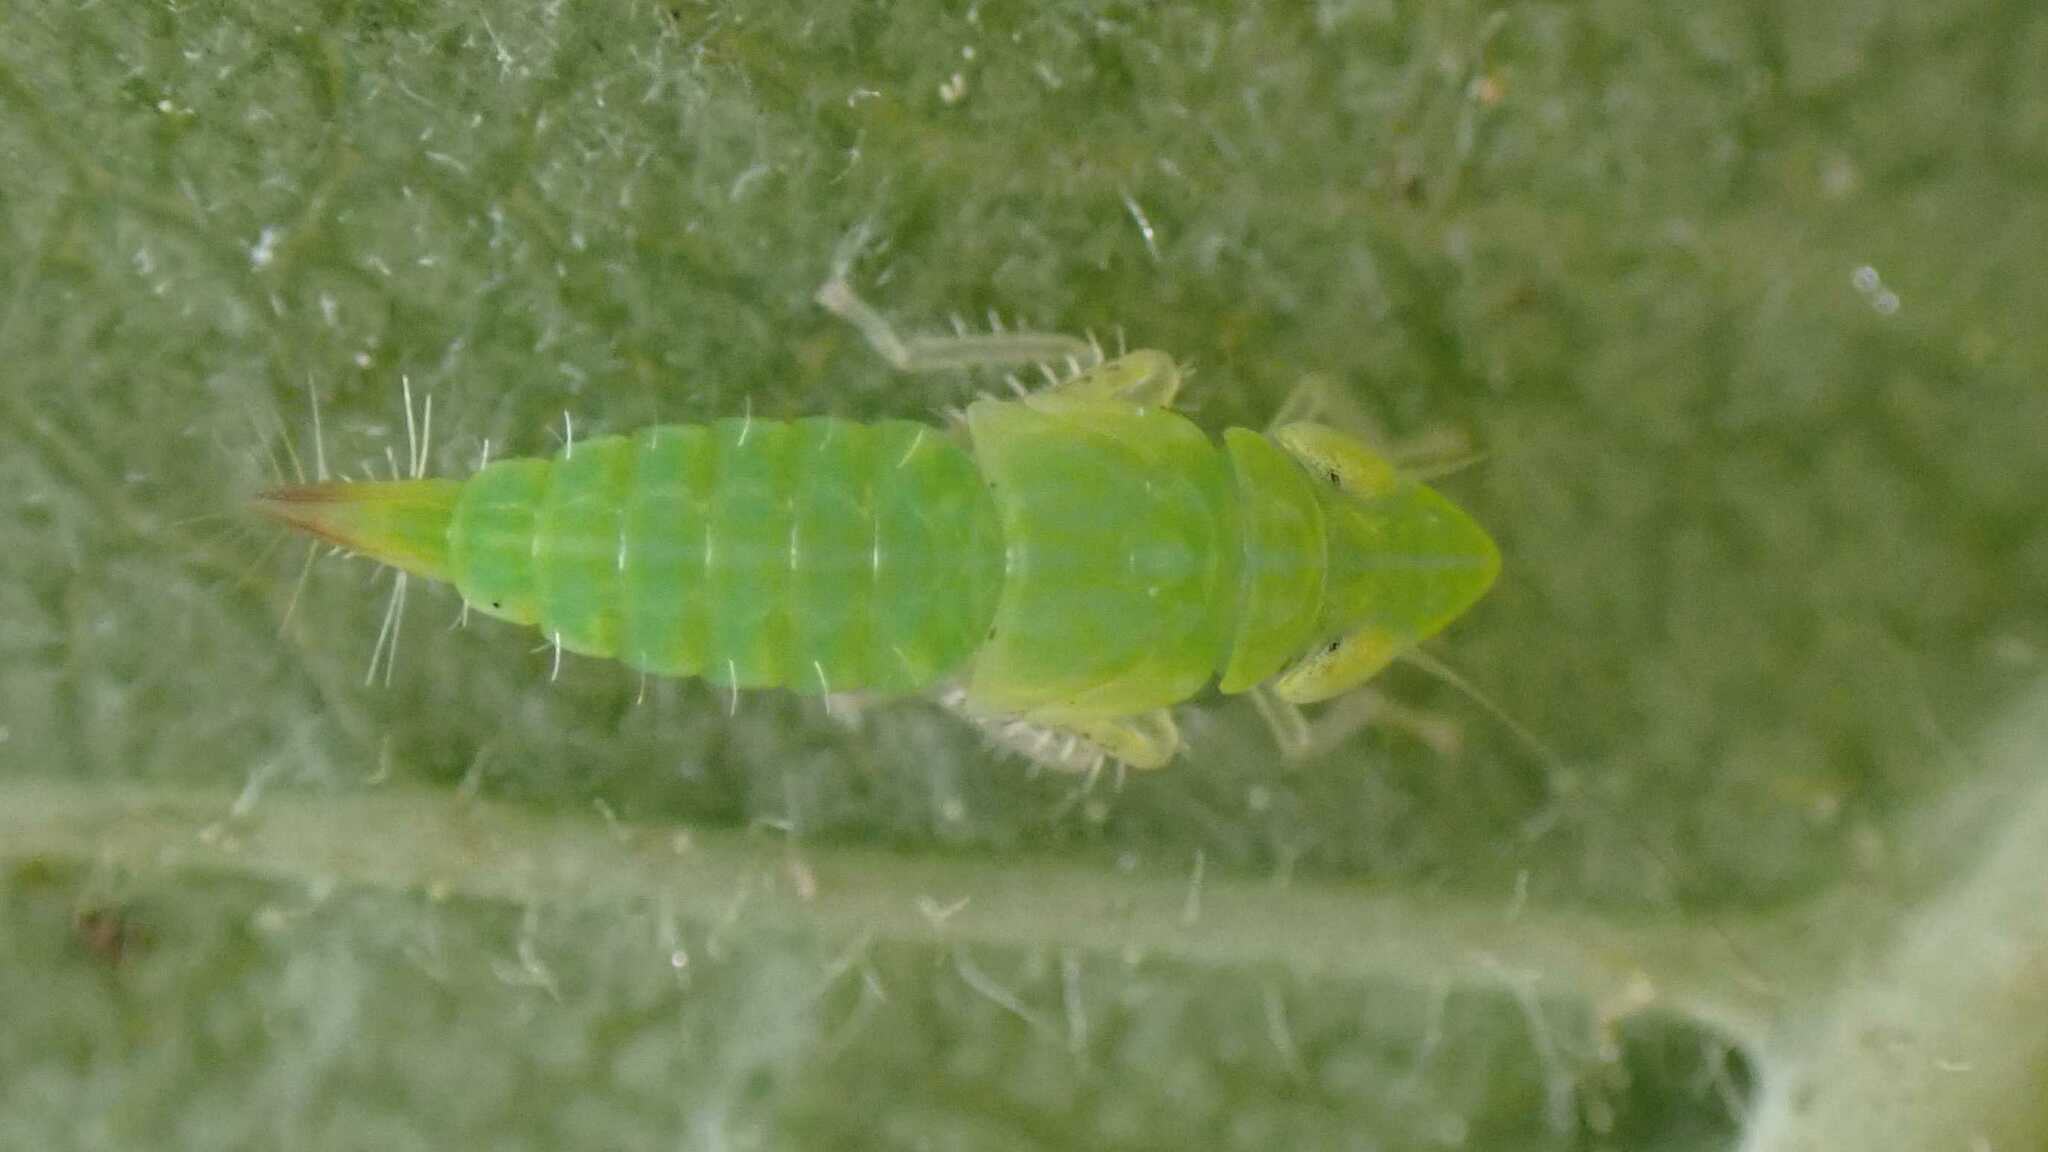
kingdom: Animalia
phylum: Arthropoda
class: Insecta
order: Hemiptera
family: Cicadellidae
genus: Synophropsis
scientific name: Synophropsis lauri
